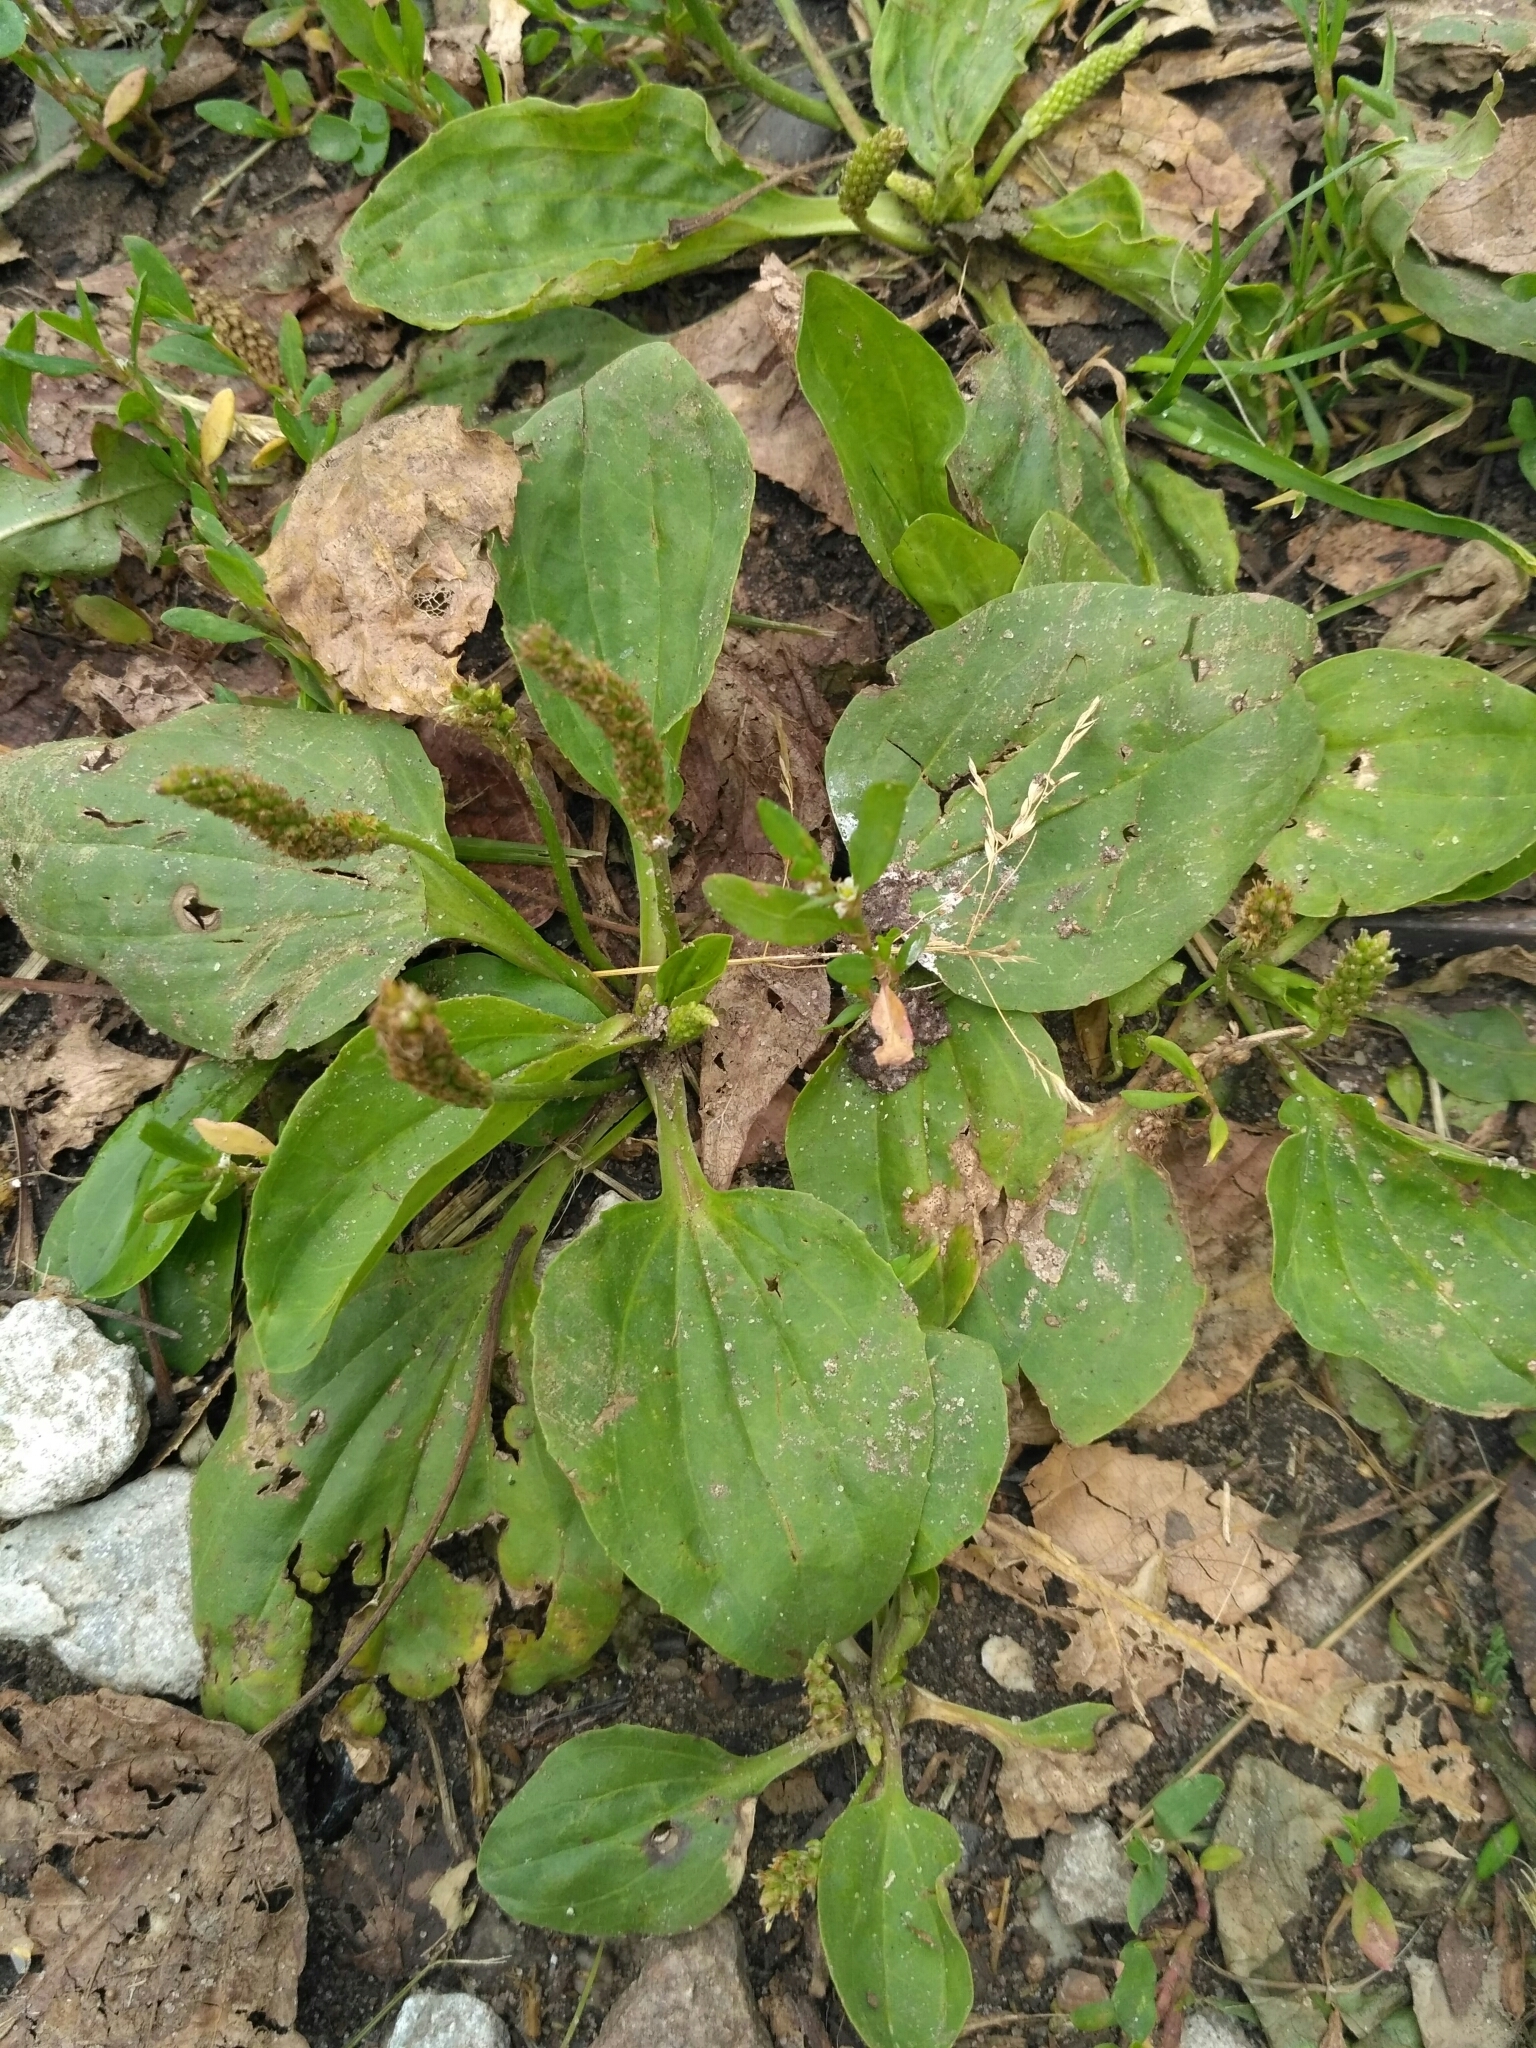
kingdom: Plantae
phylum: Tracheophyta
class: Magnoliopsida
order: Lamiales
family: Plantaginaceae
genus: Plantago
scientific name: Plantago major
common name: Common plantain
